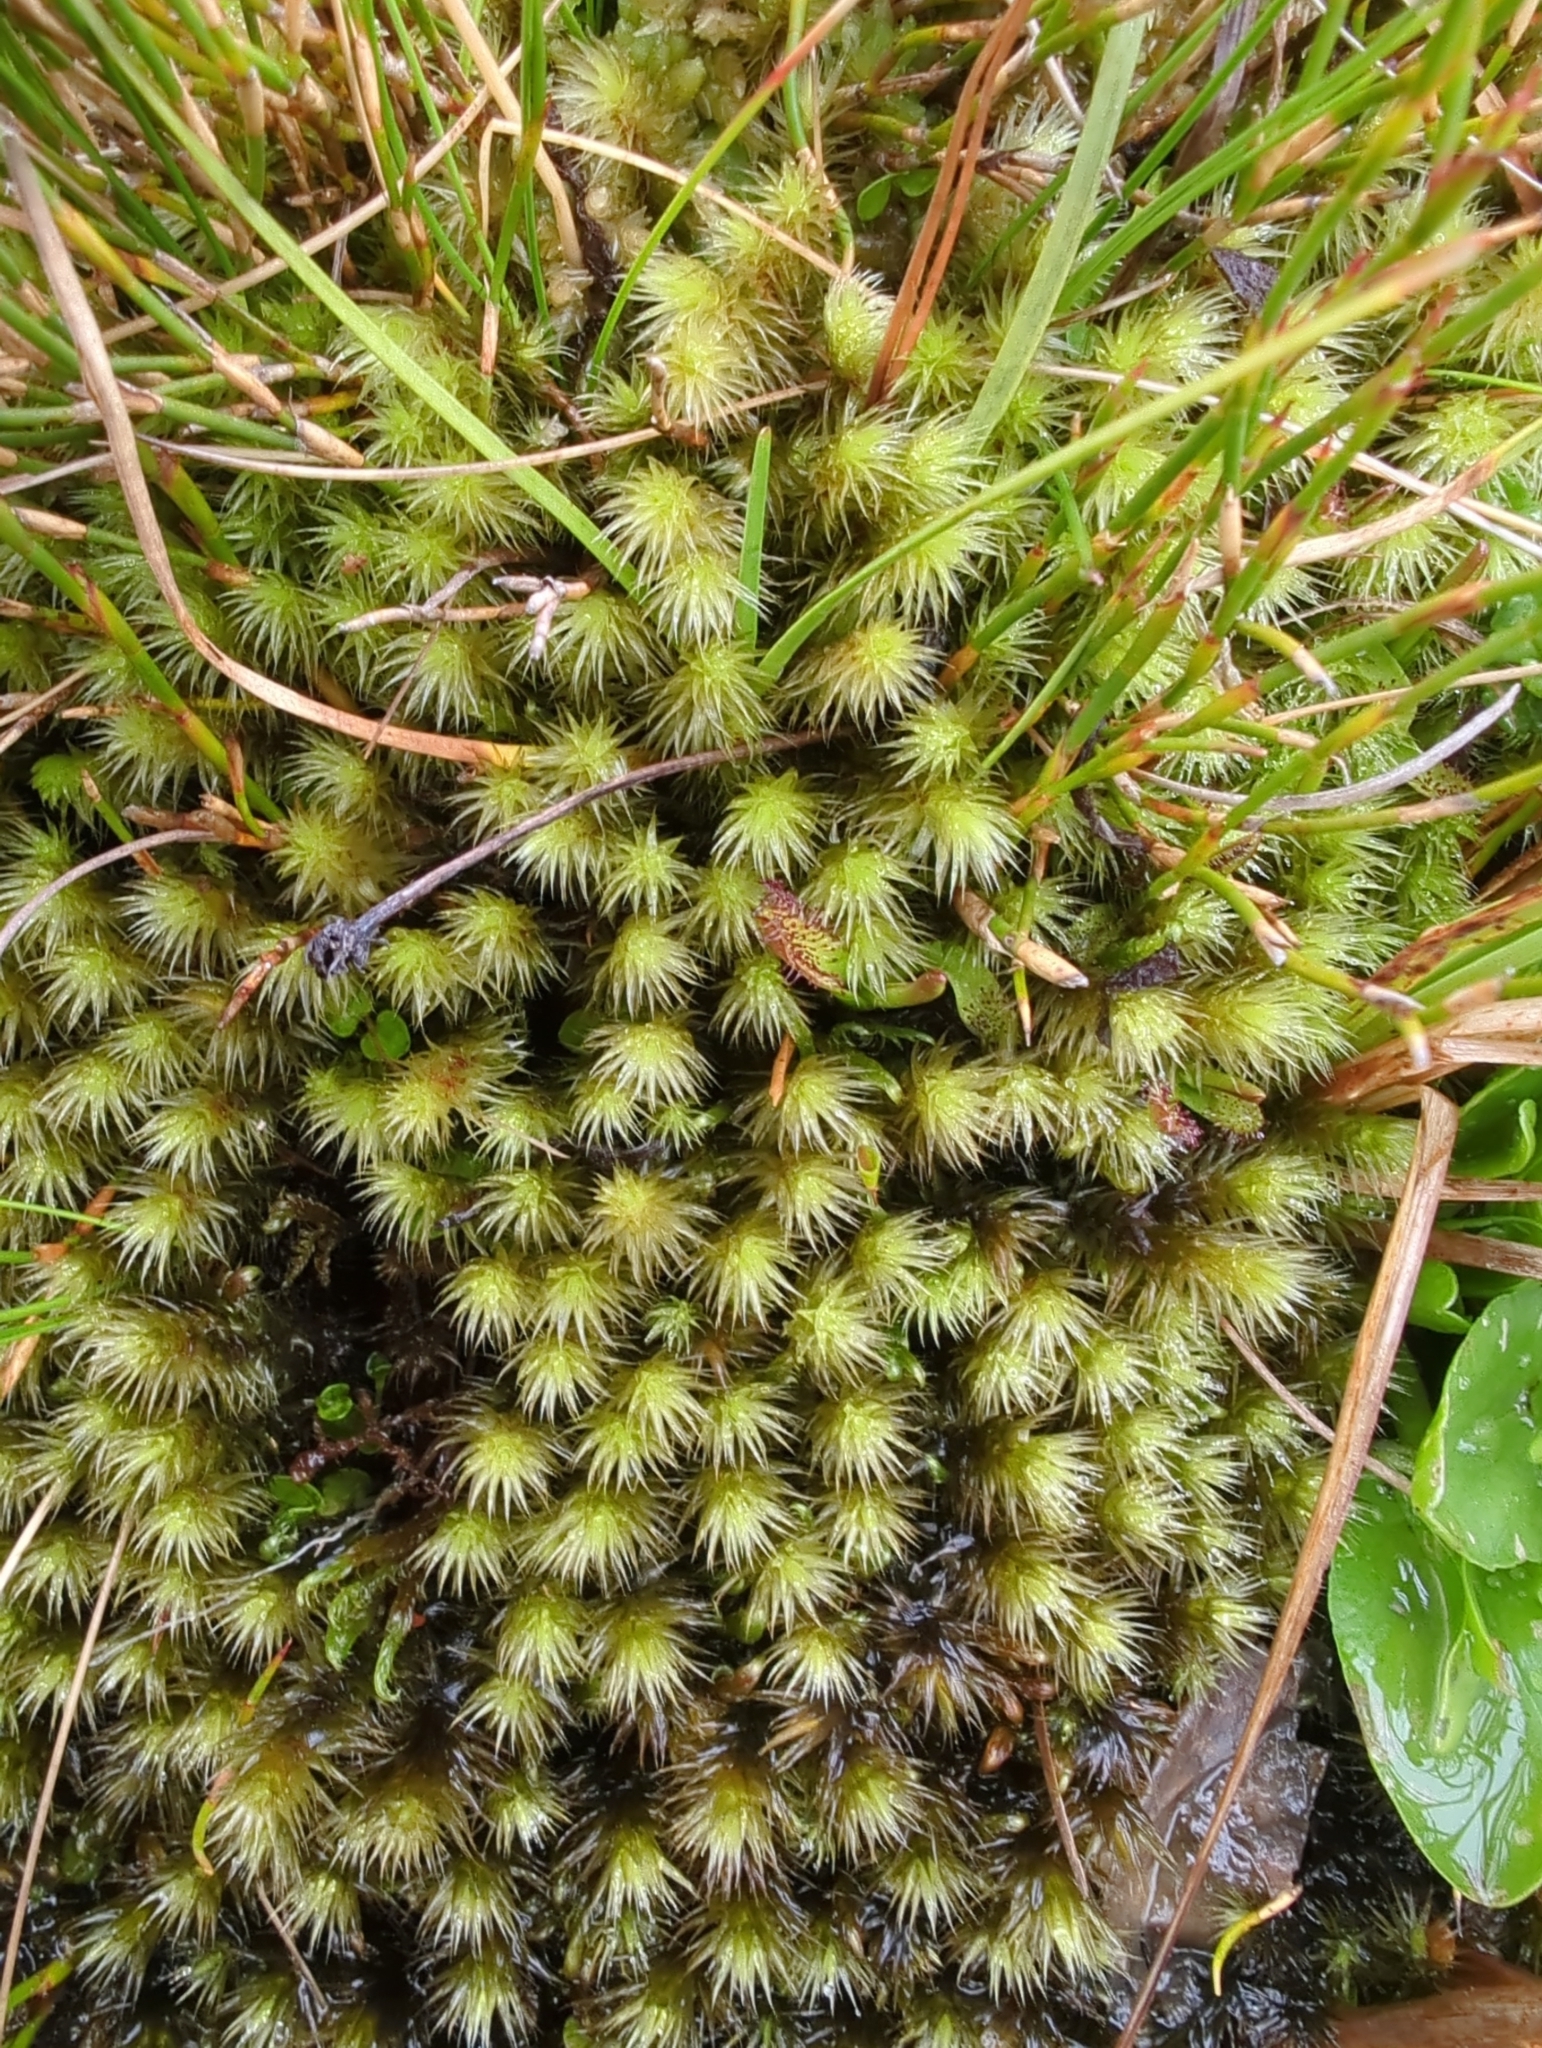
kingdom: Plantae
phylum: Bryophyta
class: Bryopsida
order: Bartramiales
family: Bartramiaceae
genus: Breutelia
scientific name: Breutelia pendula
